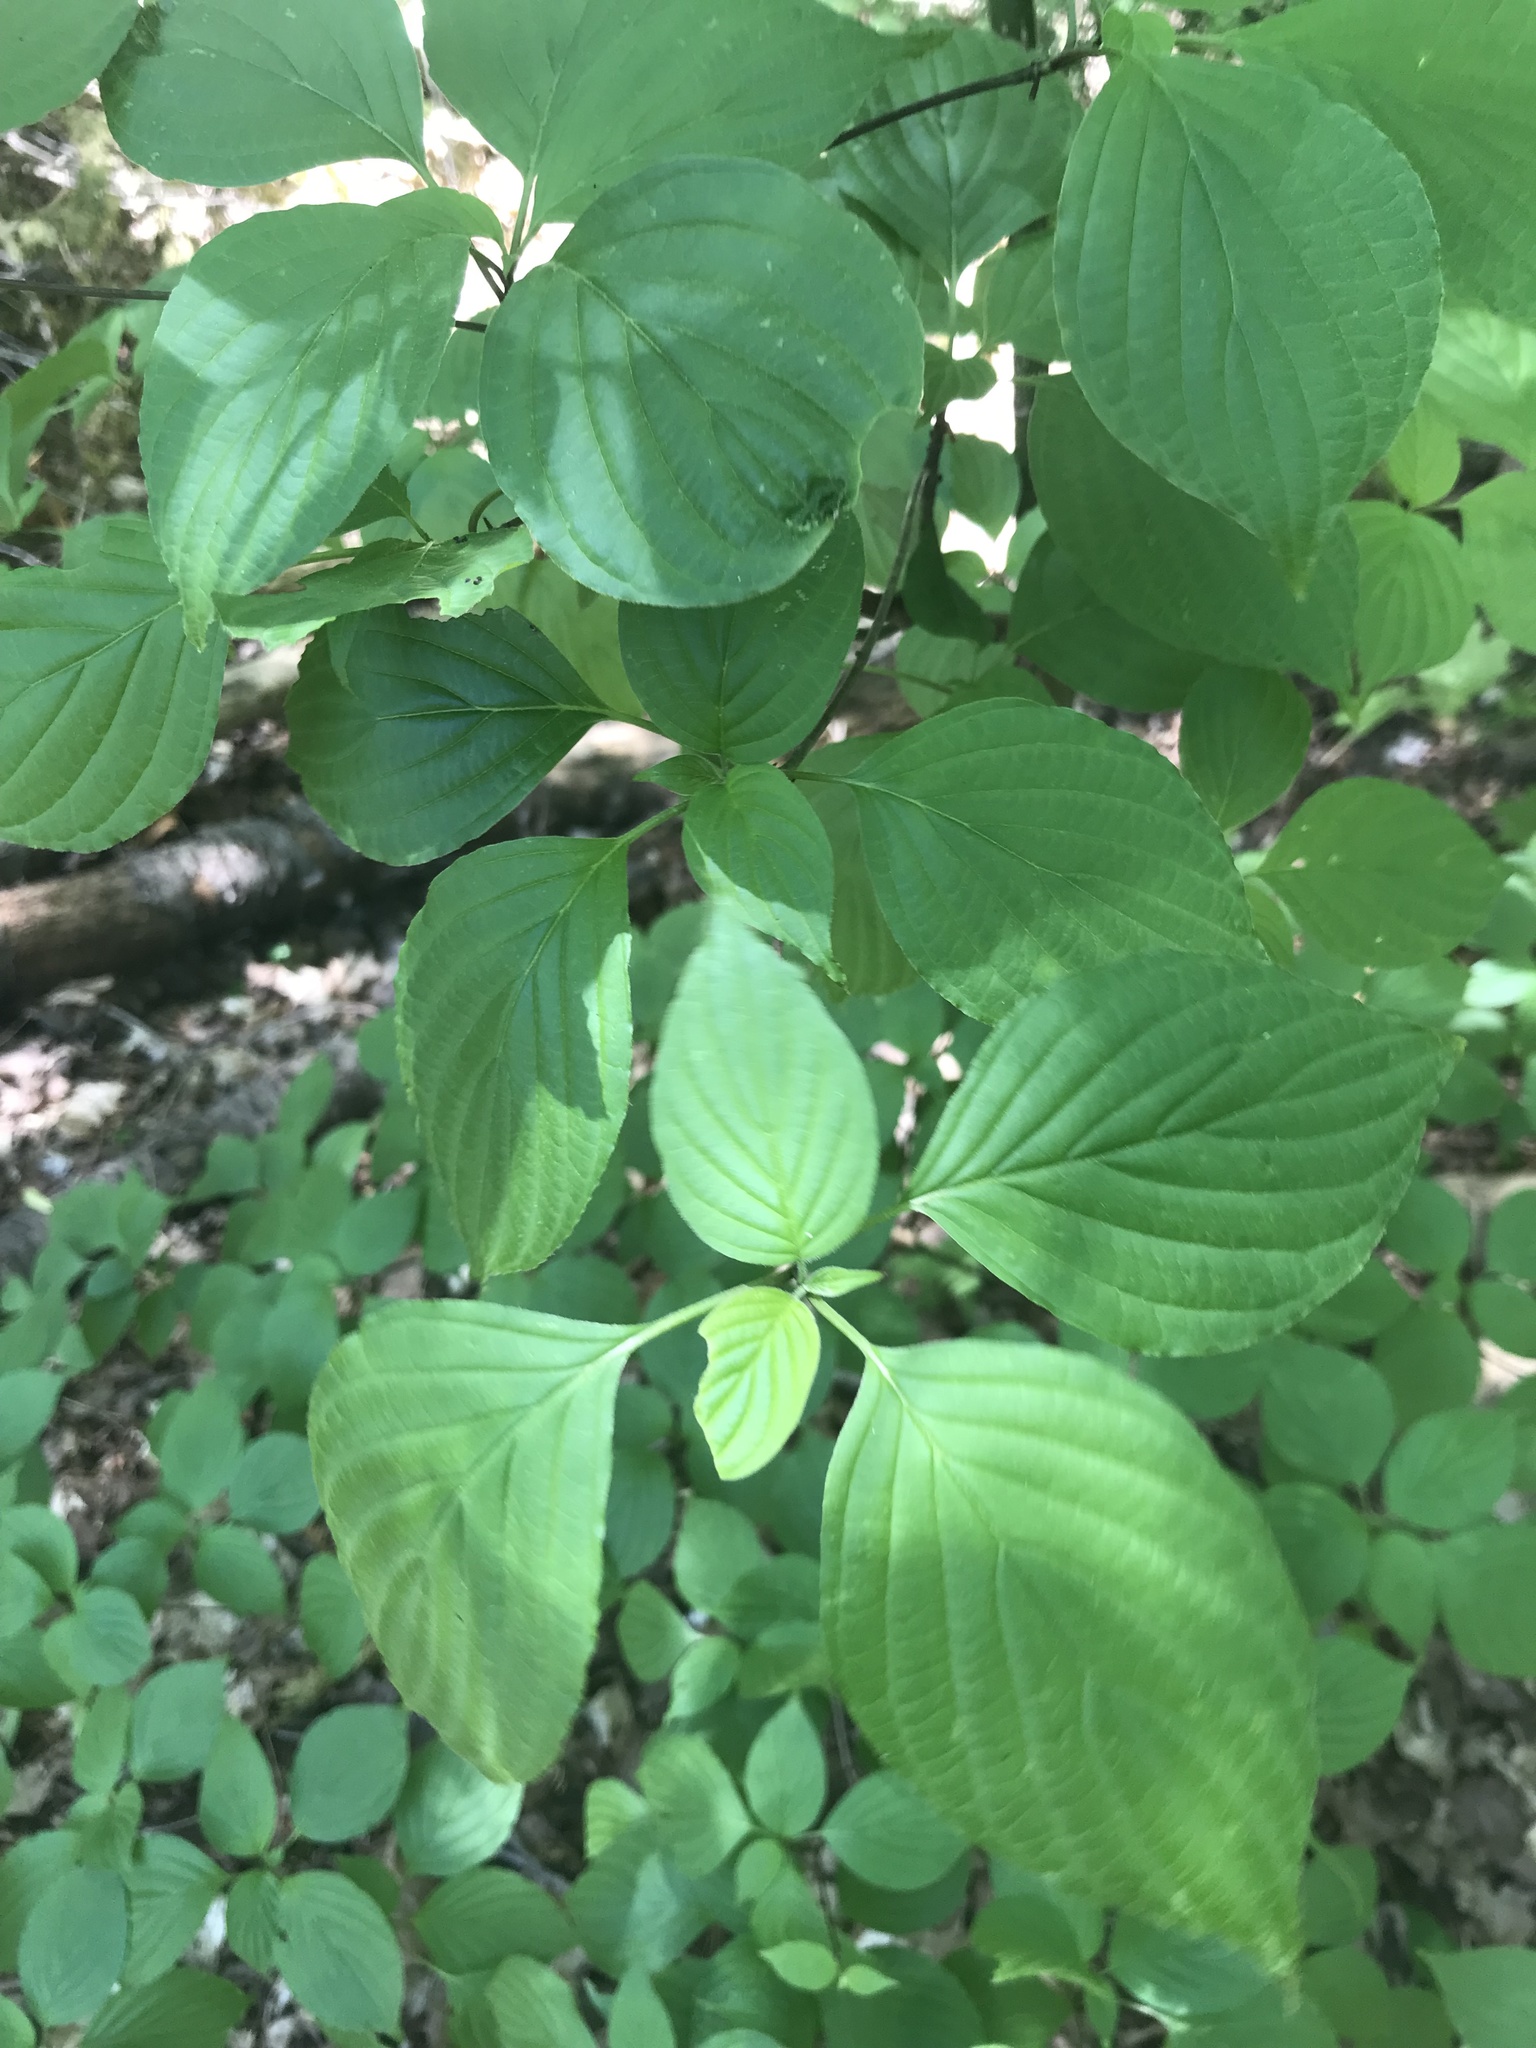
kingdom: Plantae
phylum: Tracheophyta
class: Magnoliopsida
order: Cornales
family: Cornaceae
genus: Cornus
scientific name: Cornus alternifolia
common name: Pagoda dogwood
